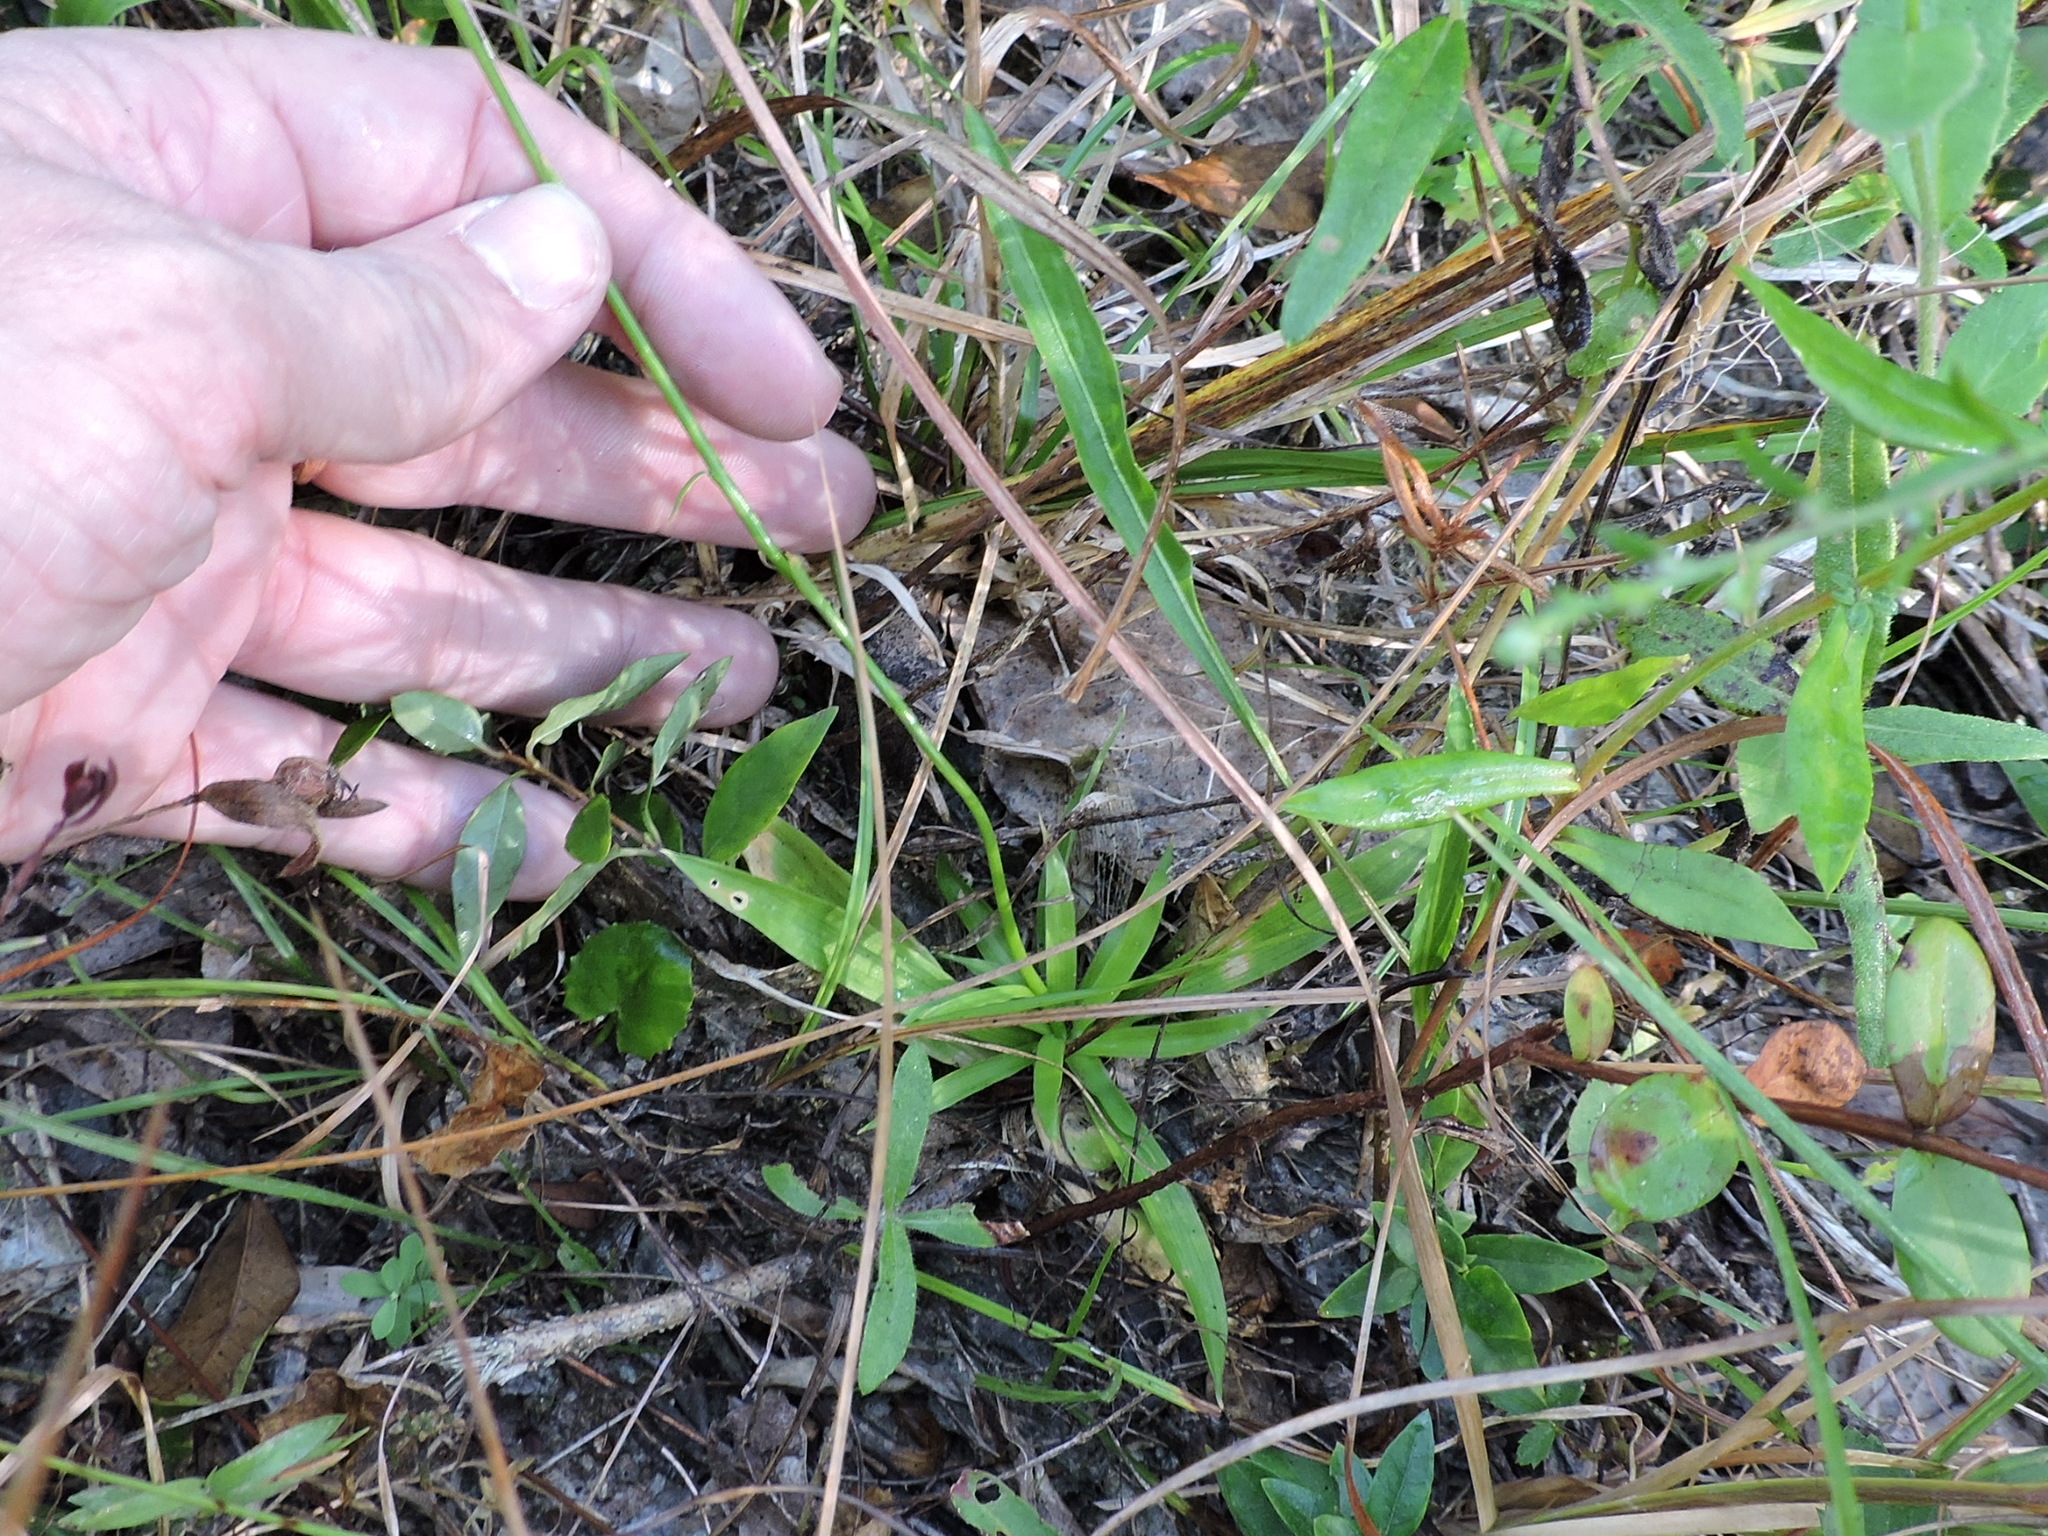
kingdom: Plantae
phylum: Tracheophyta
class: Liliopsida
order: Dioscoreales
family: Nartheciaceae
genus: Aletris
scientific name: Aletris aurea
